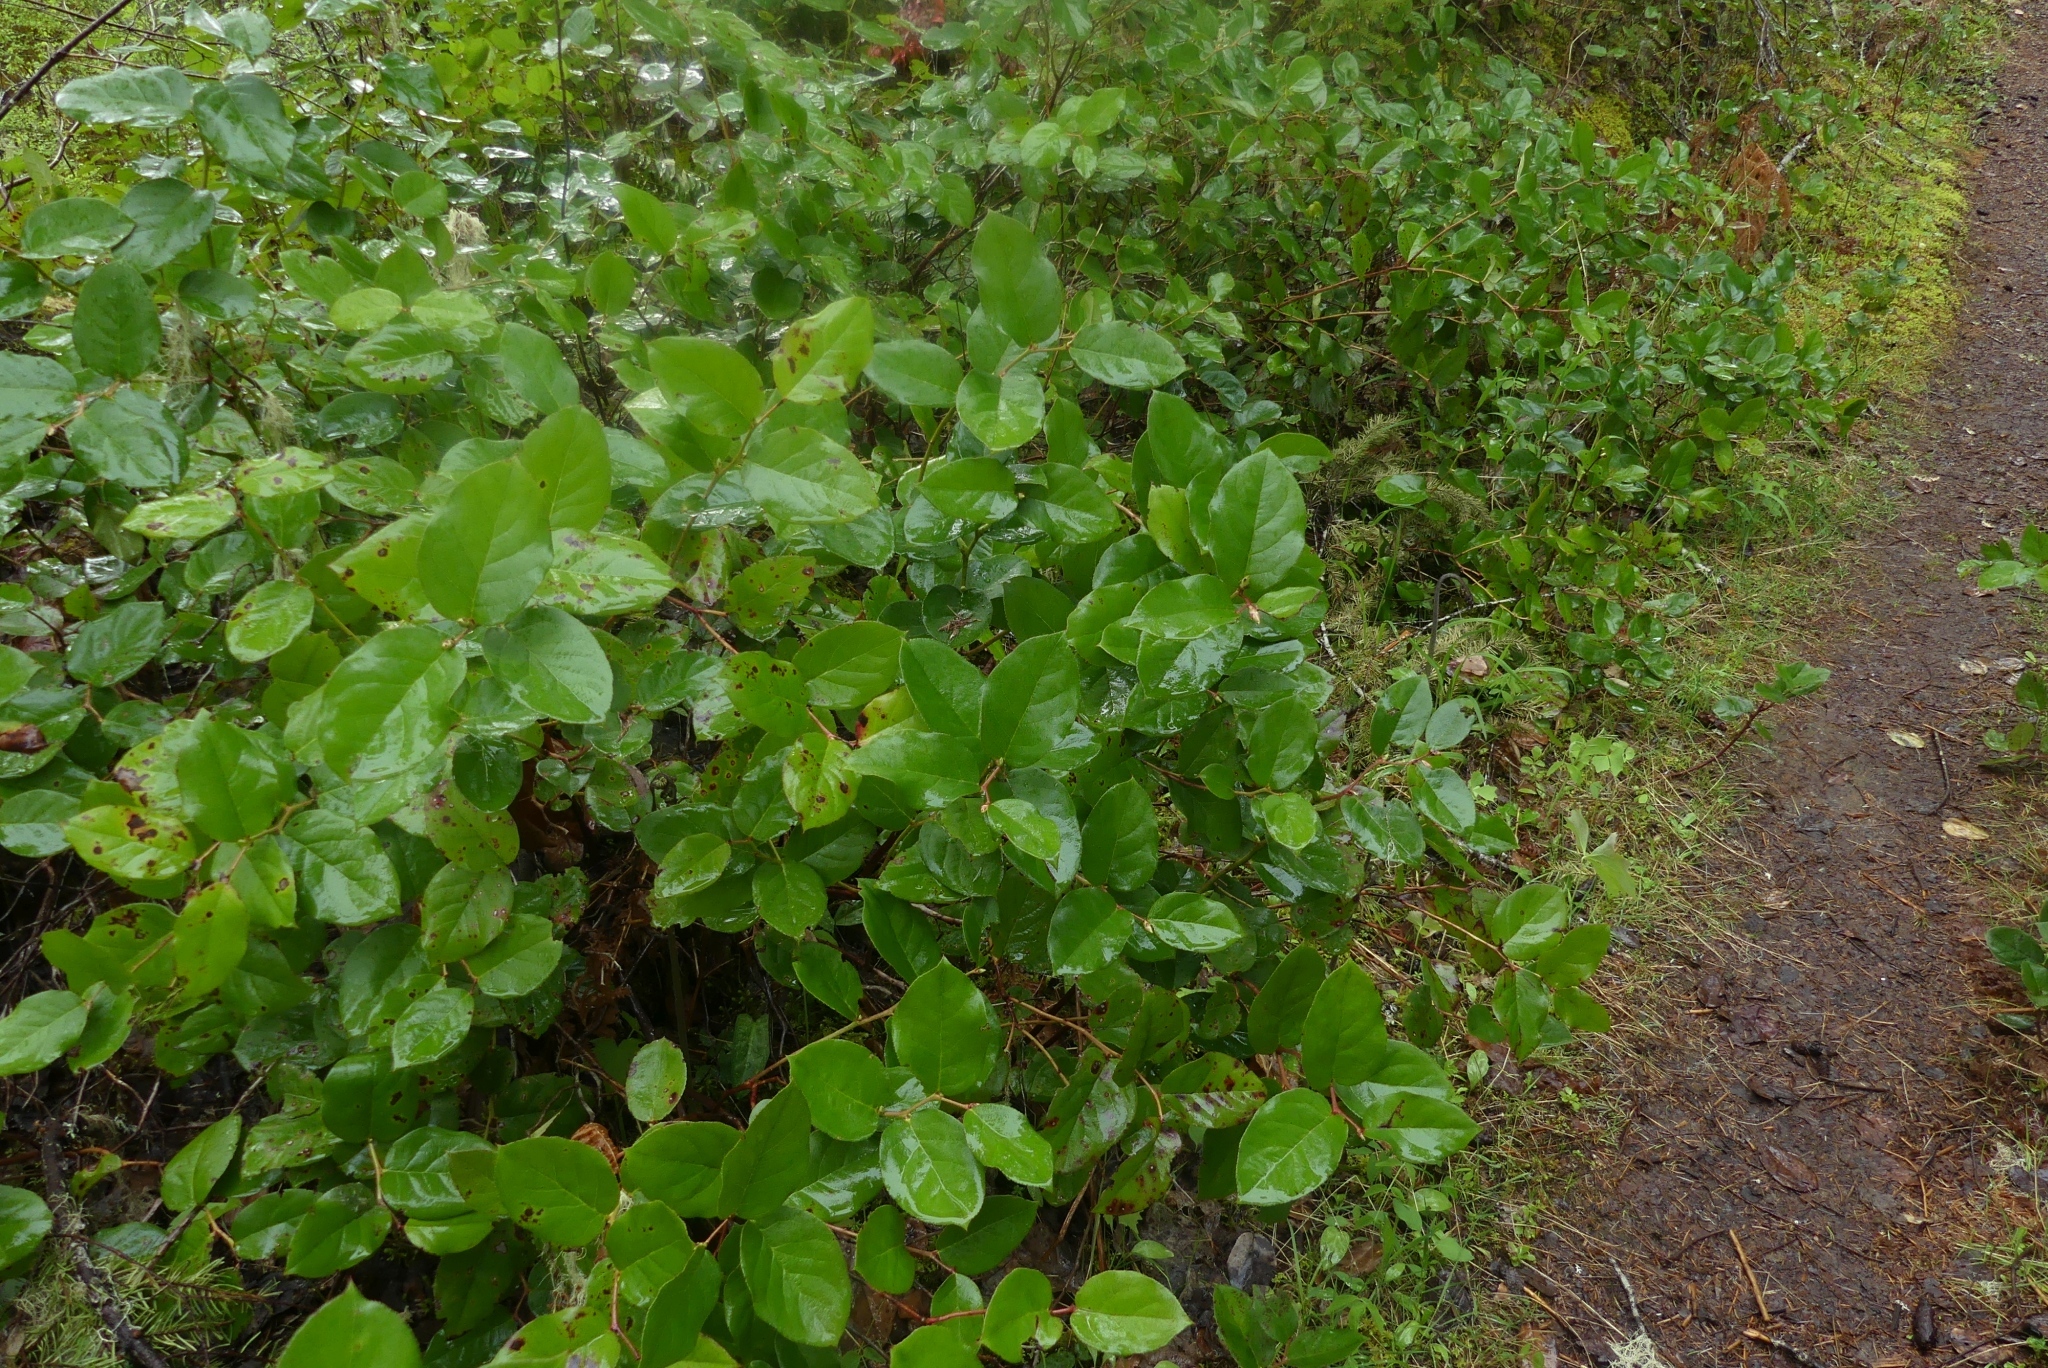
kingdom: Plantae
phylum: Tracheophyta
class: Magnoliopsida
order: Ericales
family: Ericaceae
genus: Gaultheria
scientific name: Gaultheria shallon
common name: Shallon
